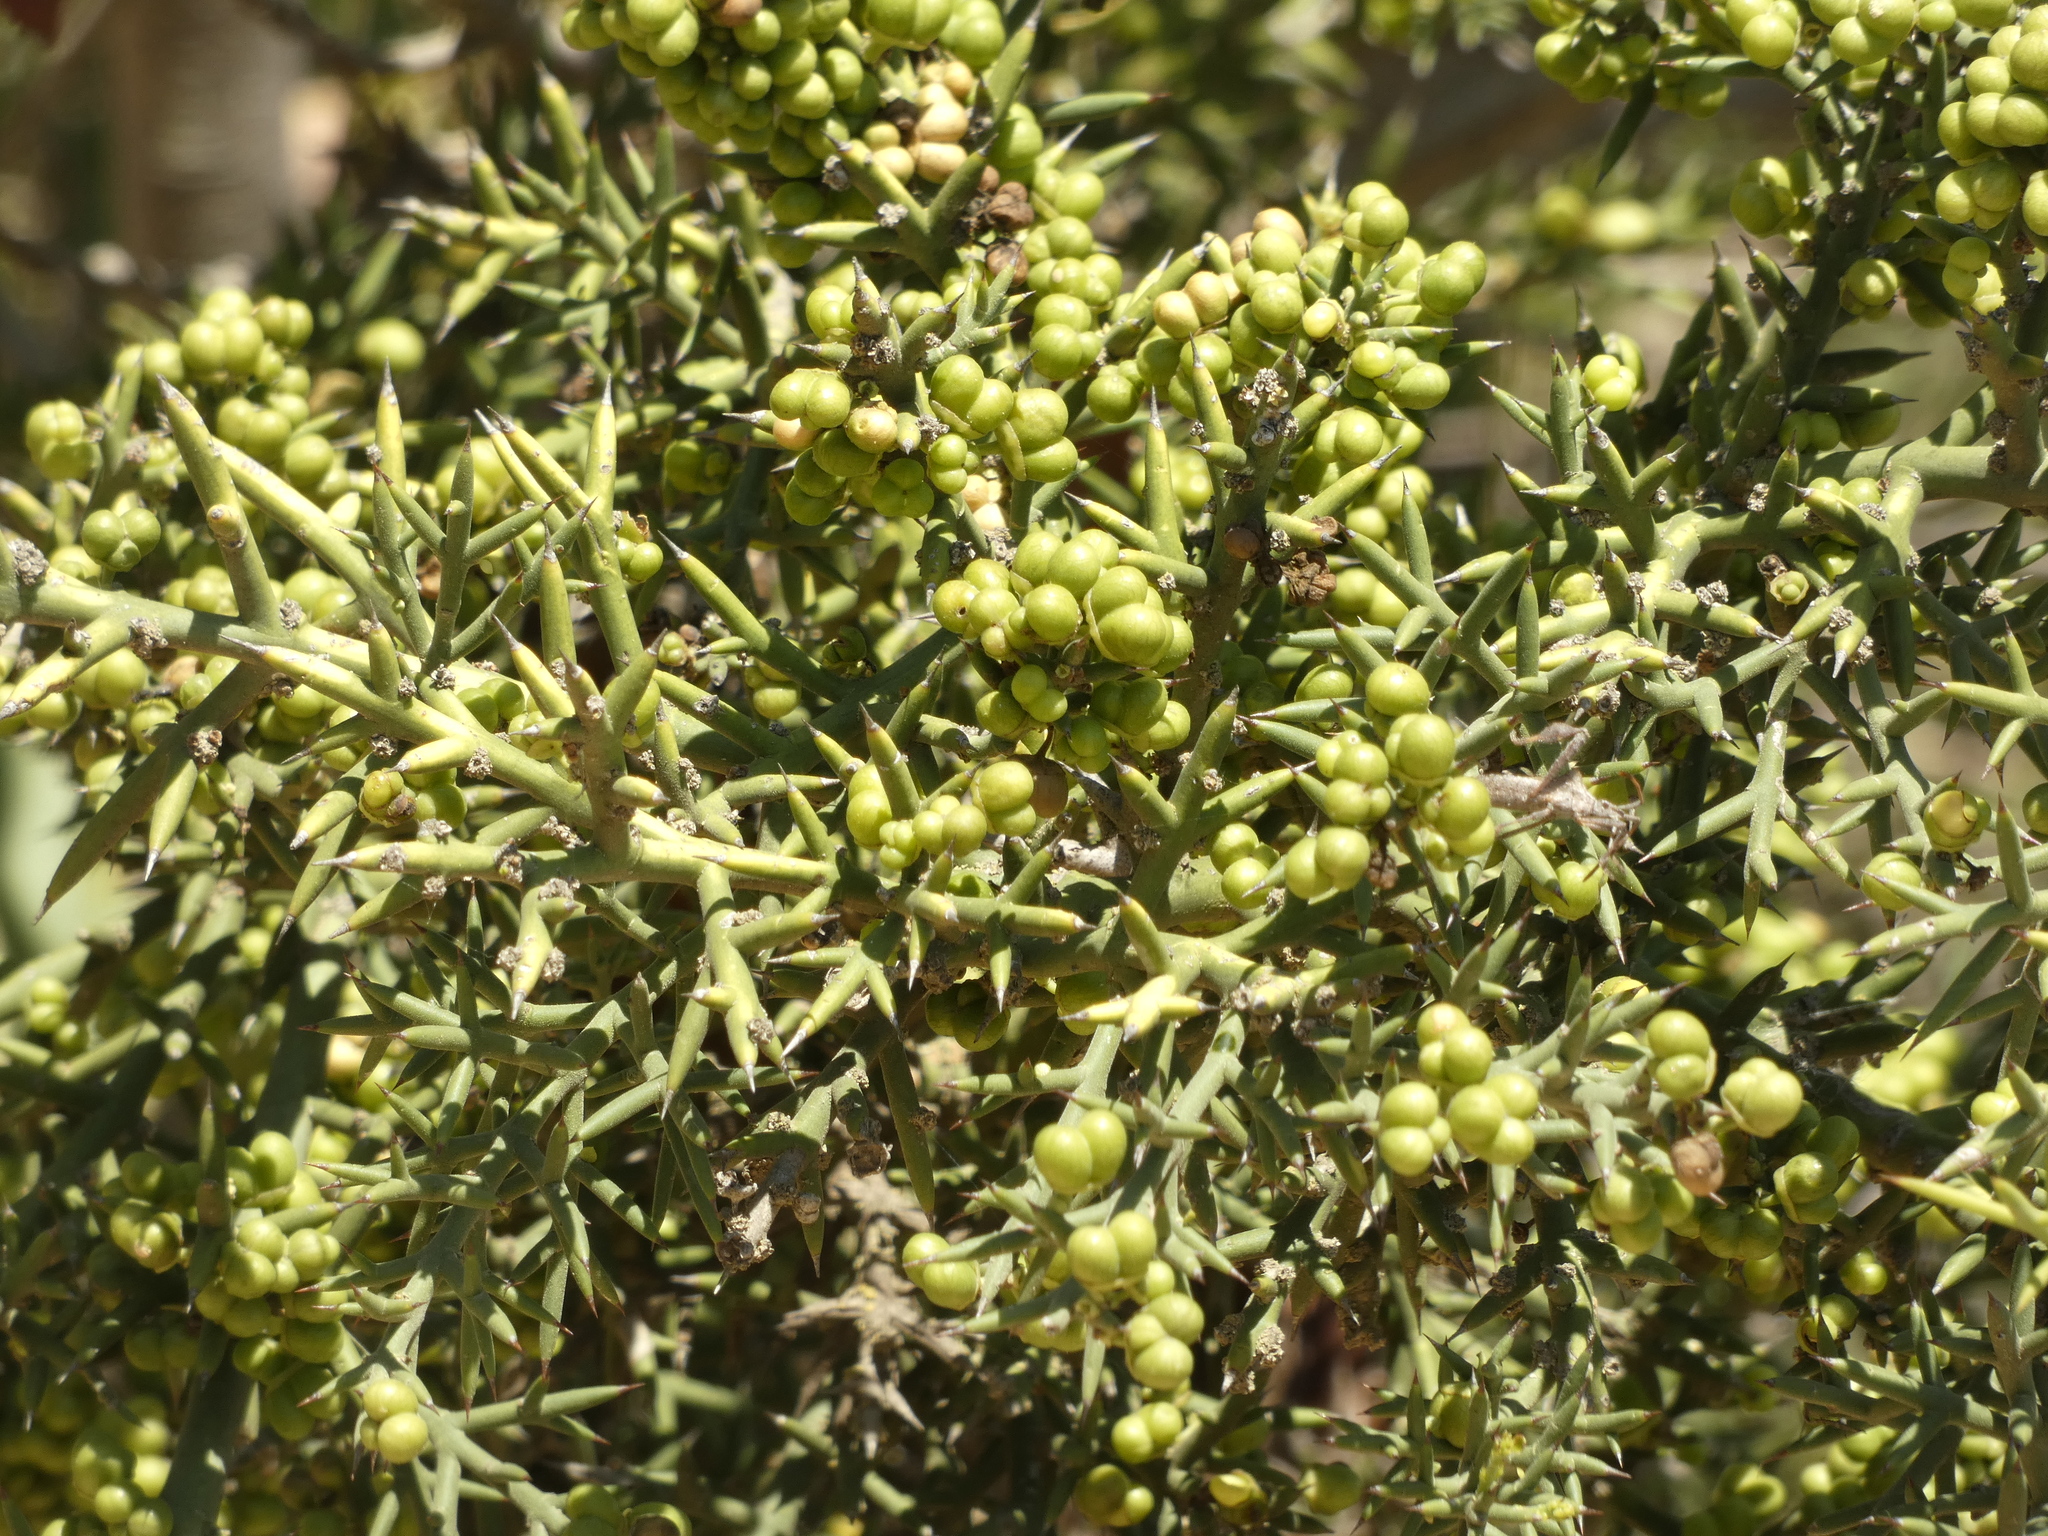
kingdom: Plantae
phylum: Tracheophyta
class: Magnoliopsida
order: Rosales
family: Rhamnaceae
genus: Colletia
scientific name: Colletia spinosissima
